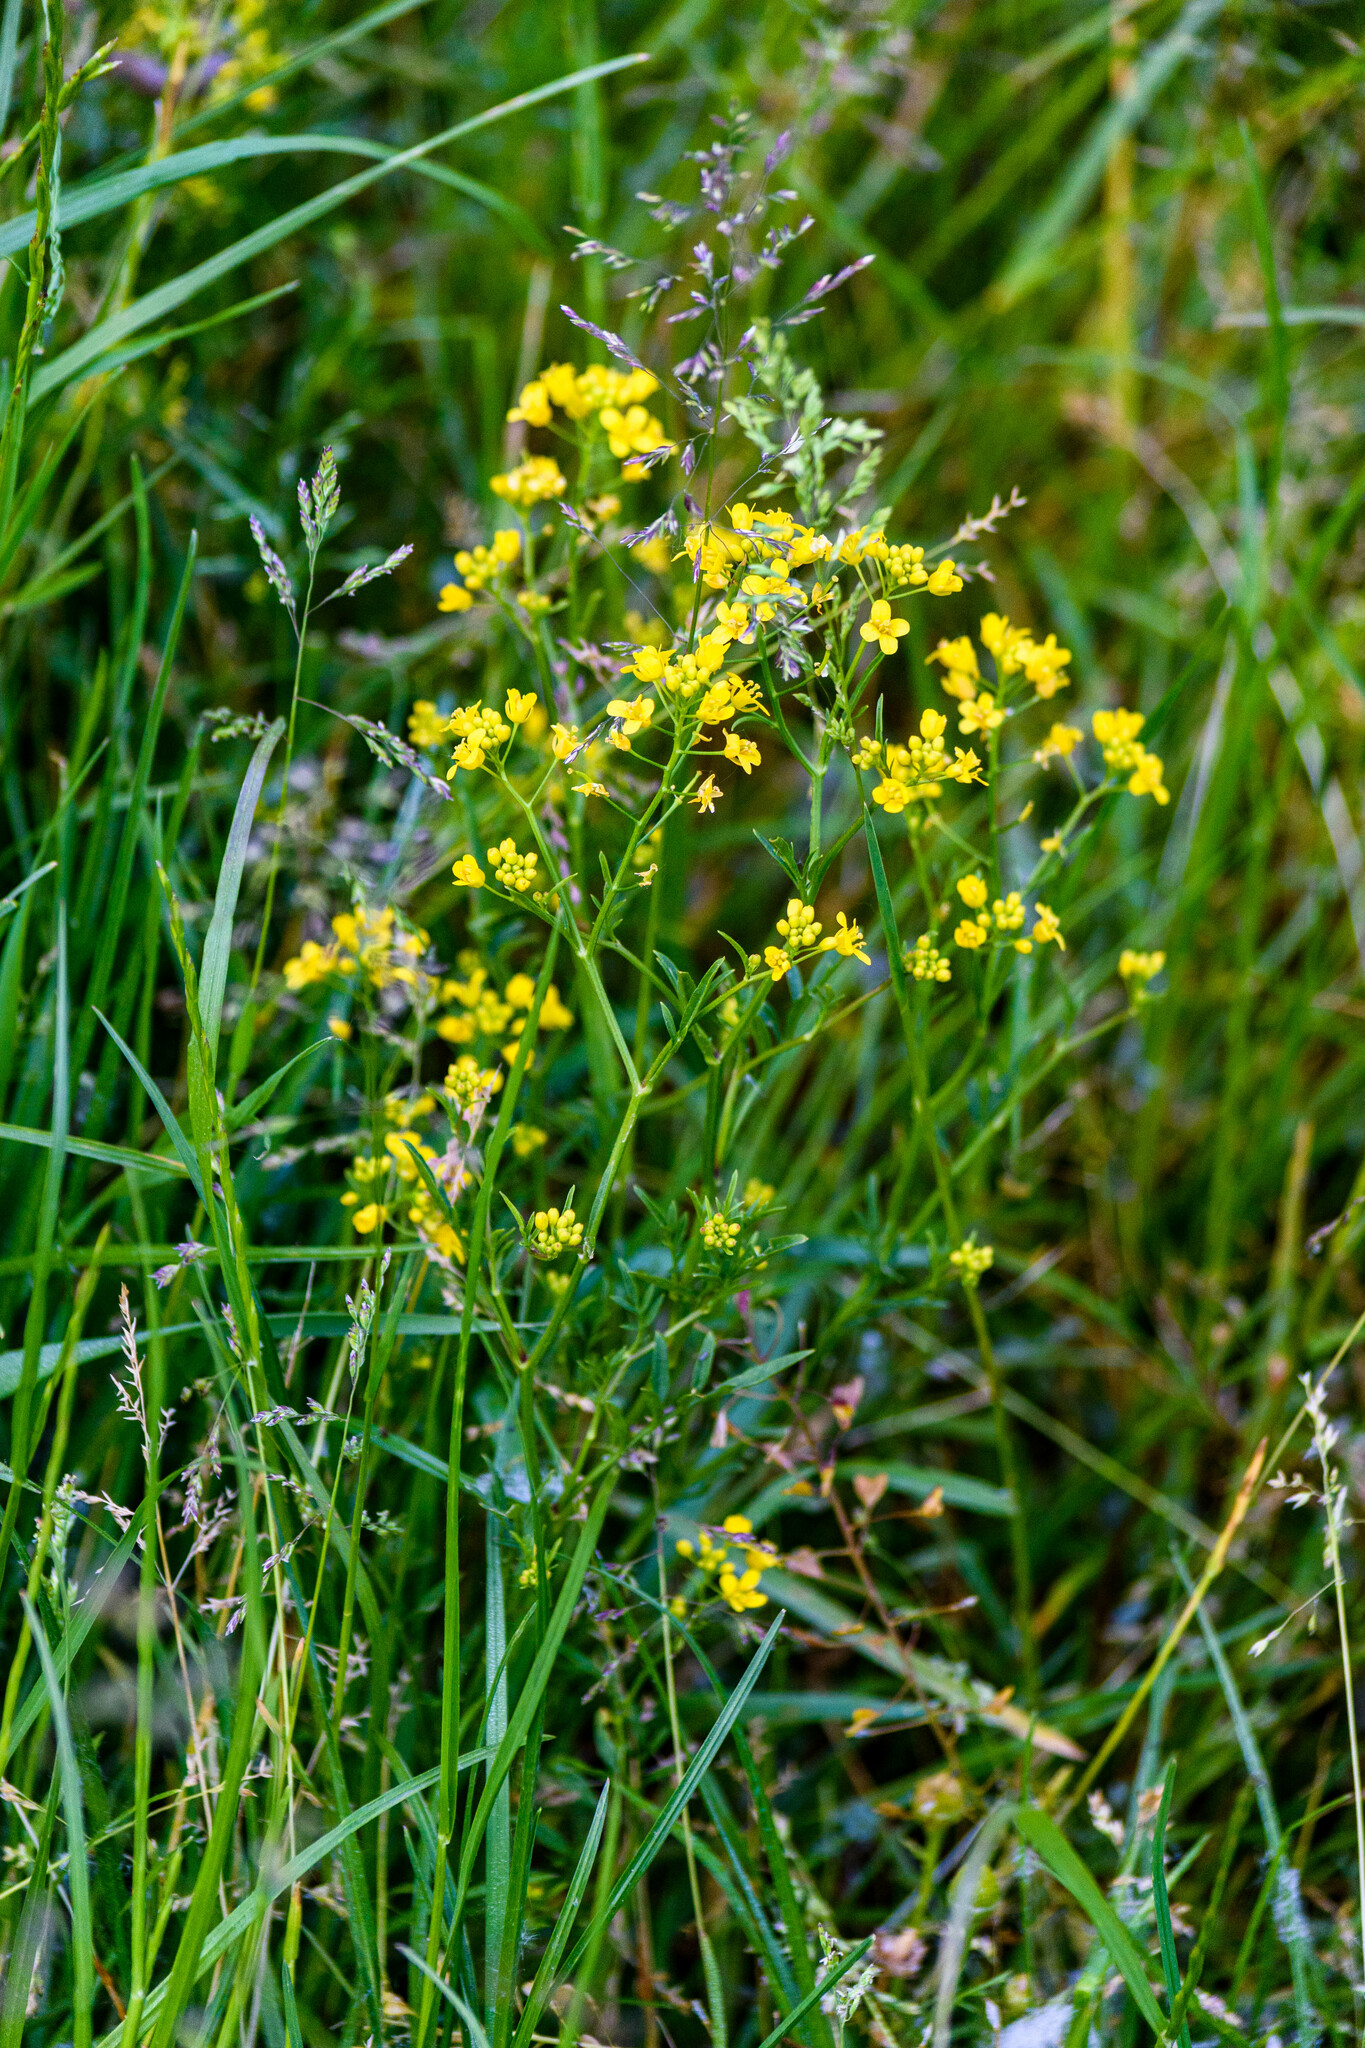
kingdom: Plantae
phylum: Tracheophyta
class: Magnoliopsida
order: Brassicales
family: Brassicaceae
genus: Rorippa
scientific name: Rorippa sylvestris
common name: Creeping yellowcress
